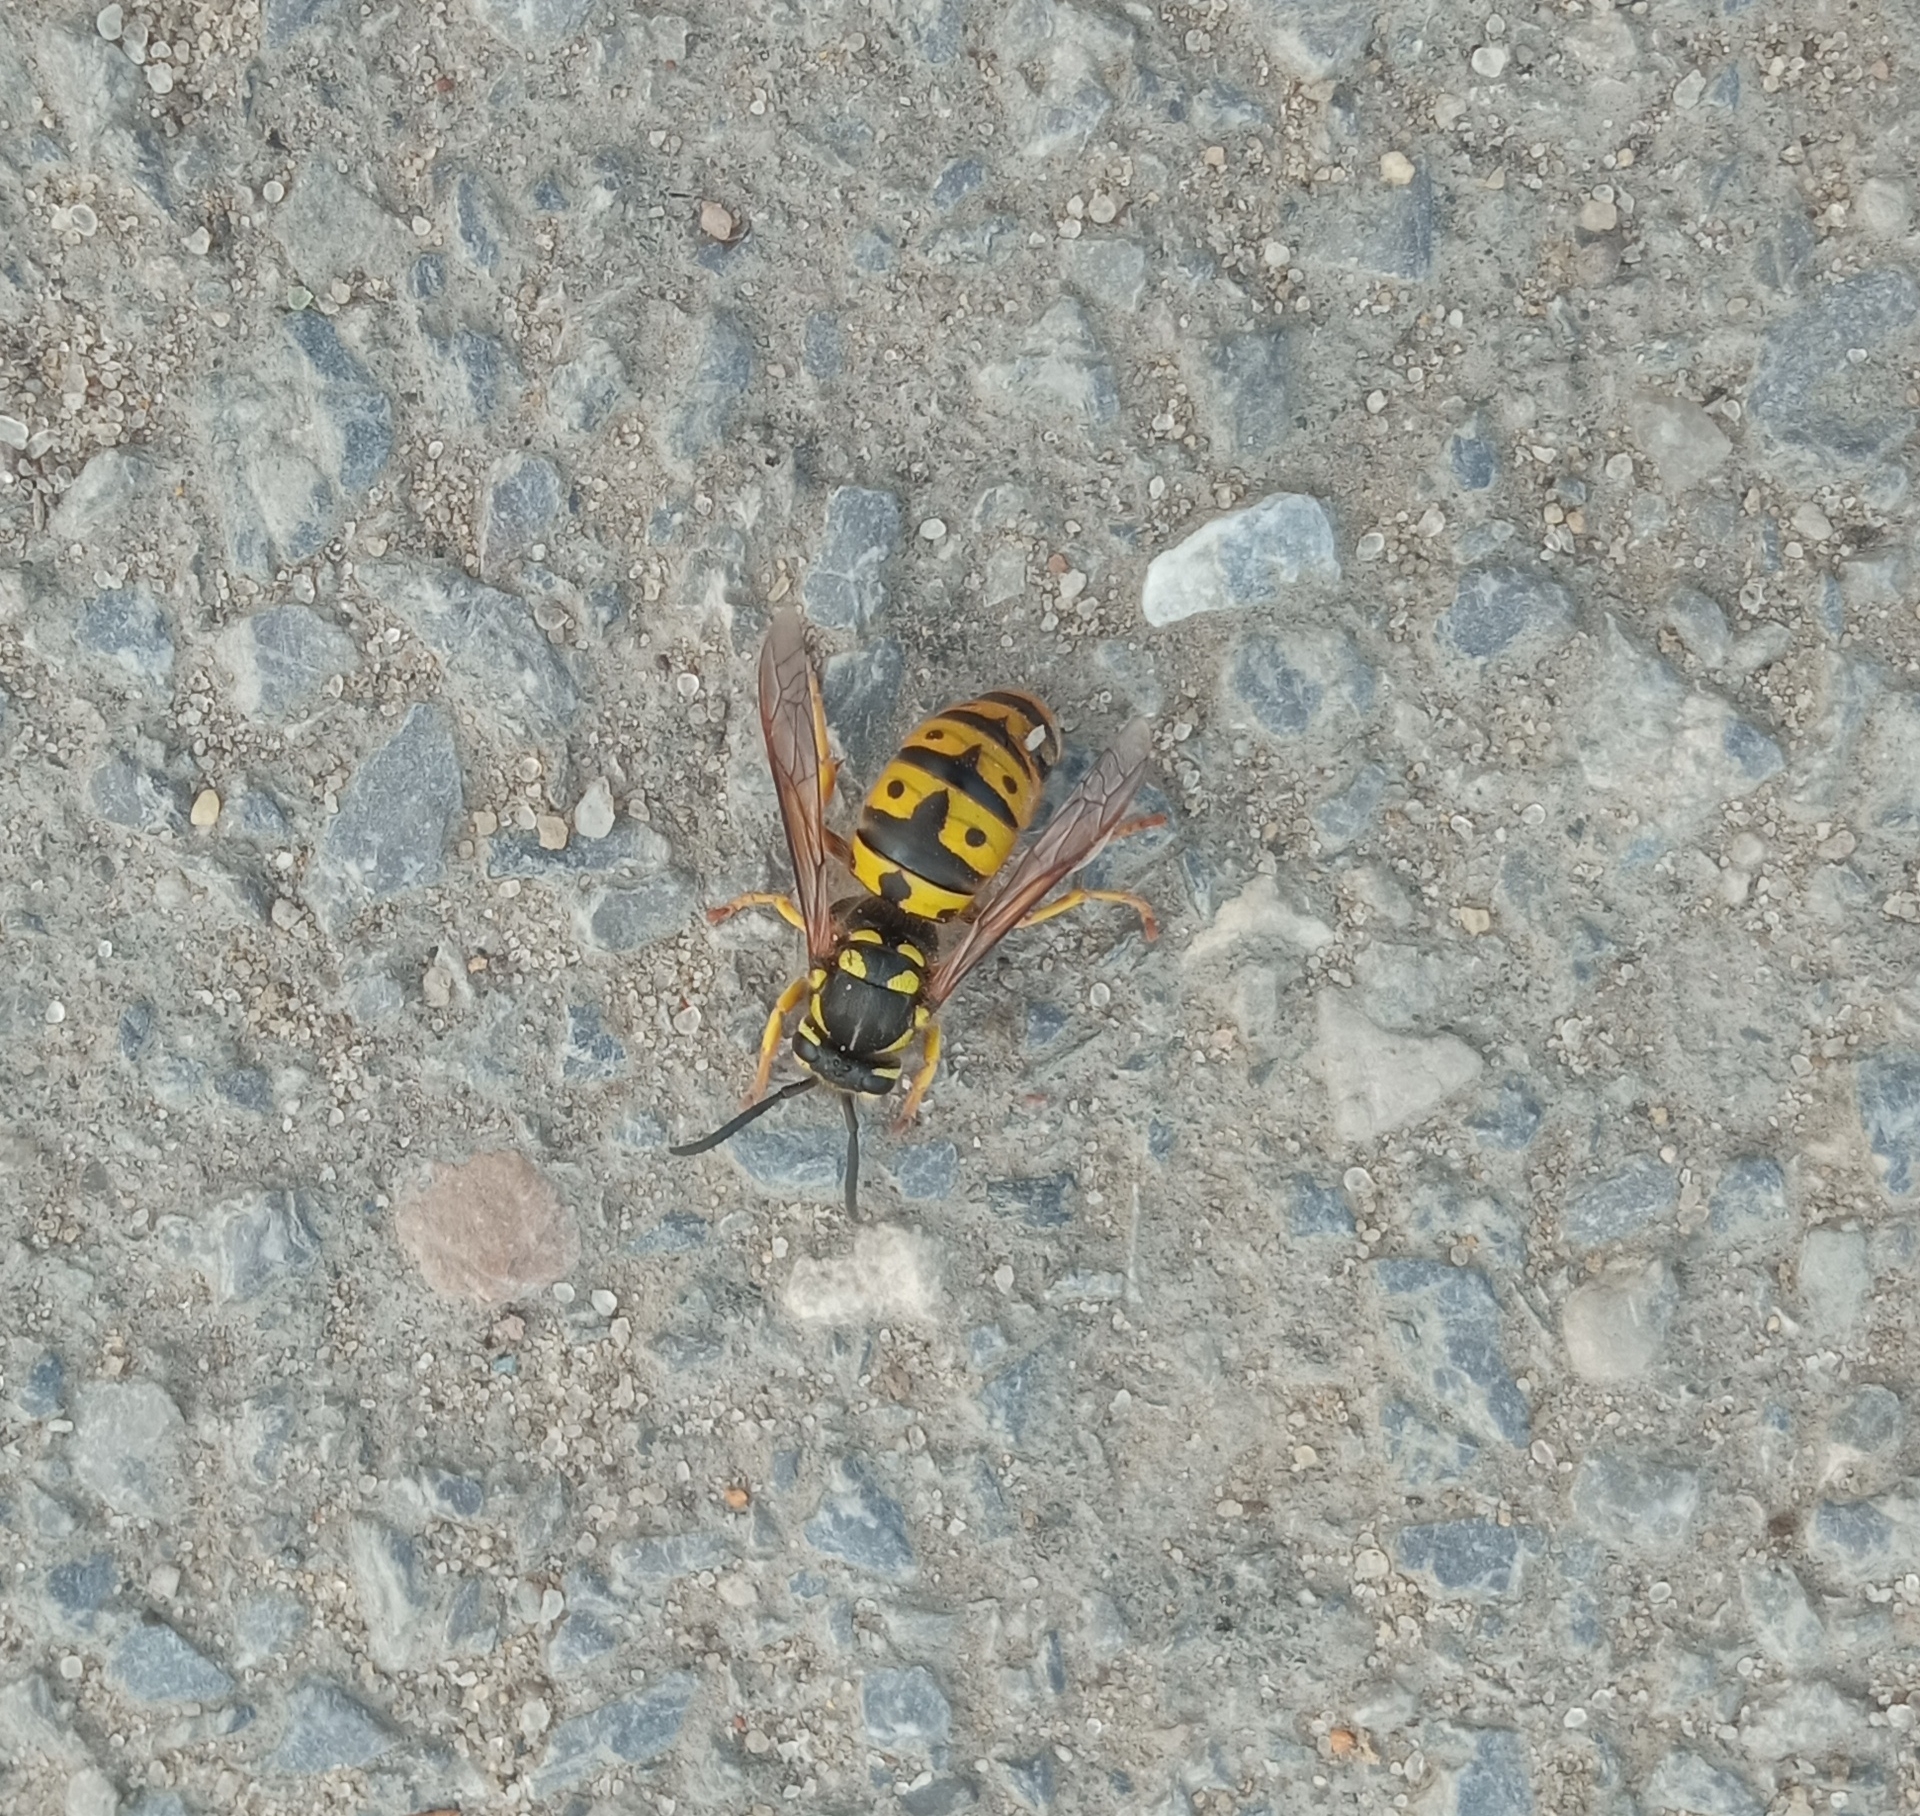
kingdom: Animalia
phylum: Arthropoda
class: Insecta
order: Hymenoptera
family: Vespidae
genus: Vespula
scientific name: Vespula germanica
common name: German wasp
